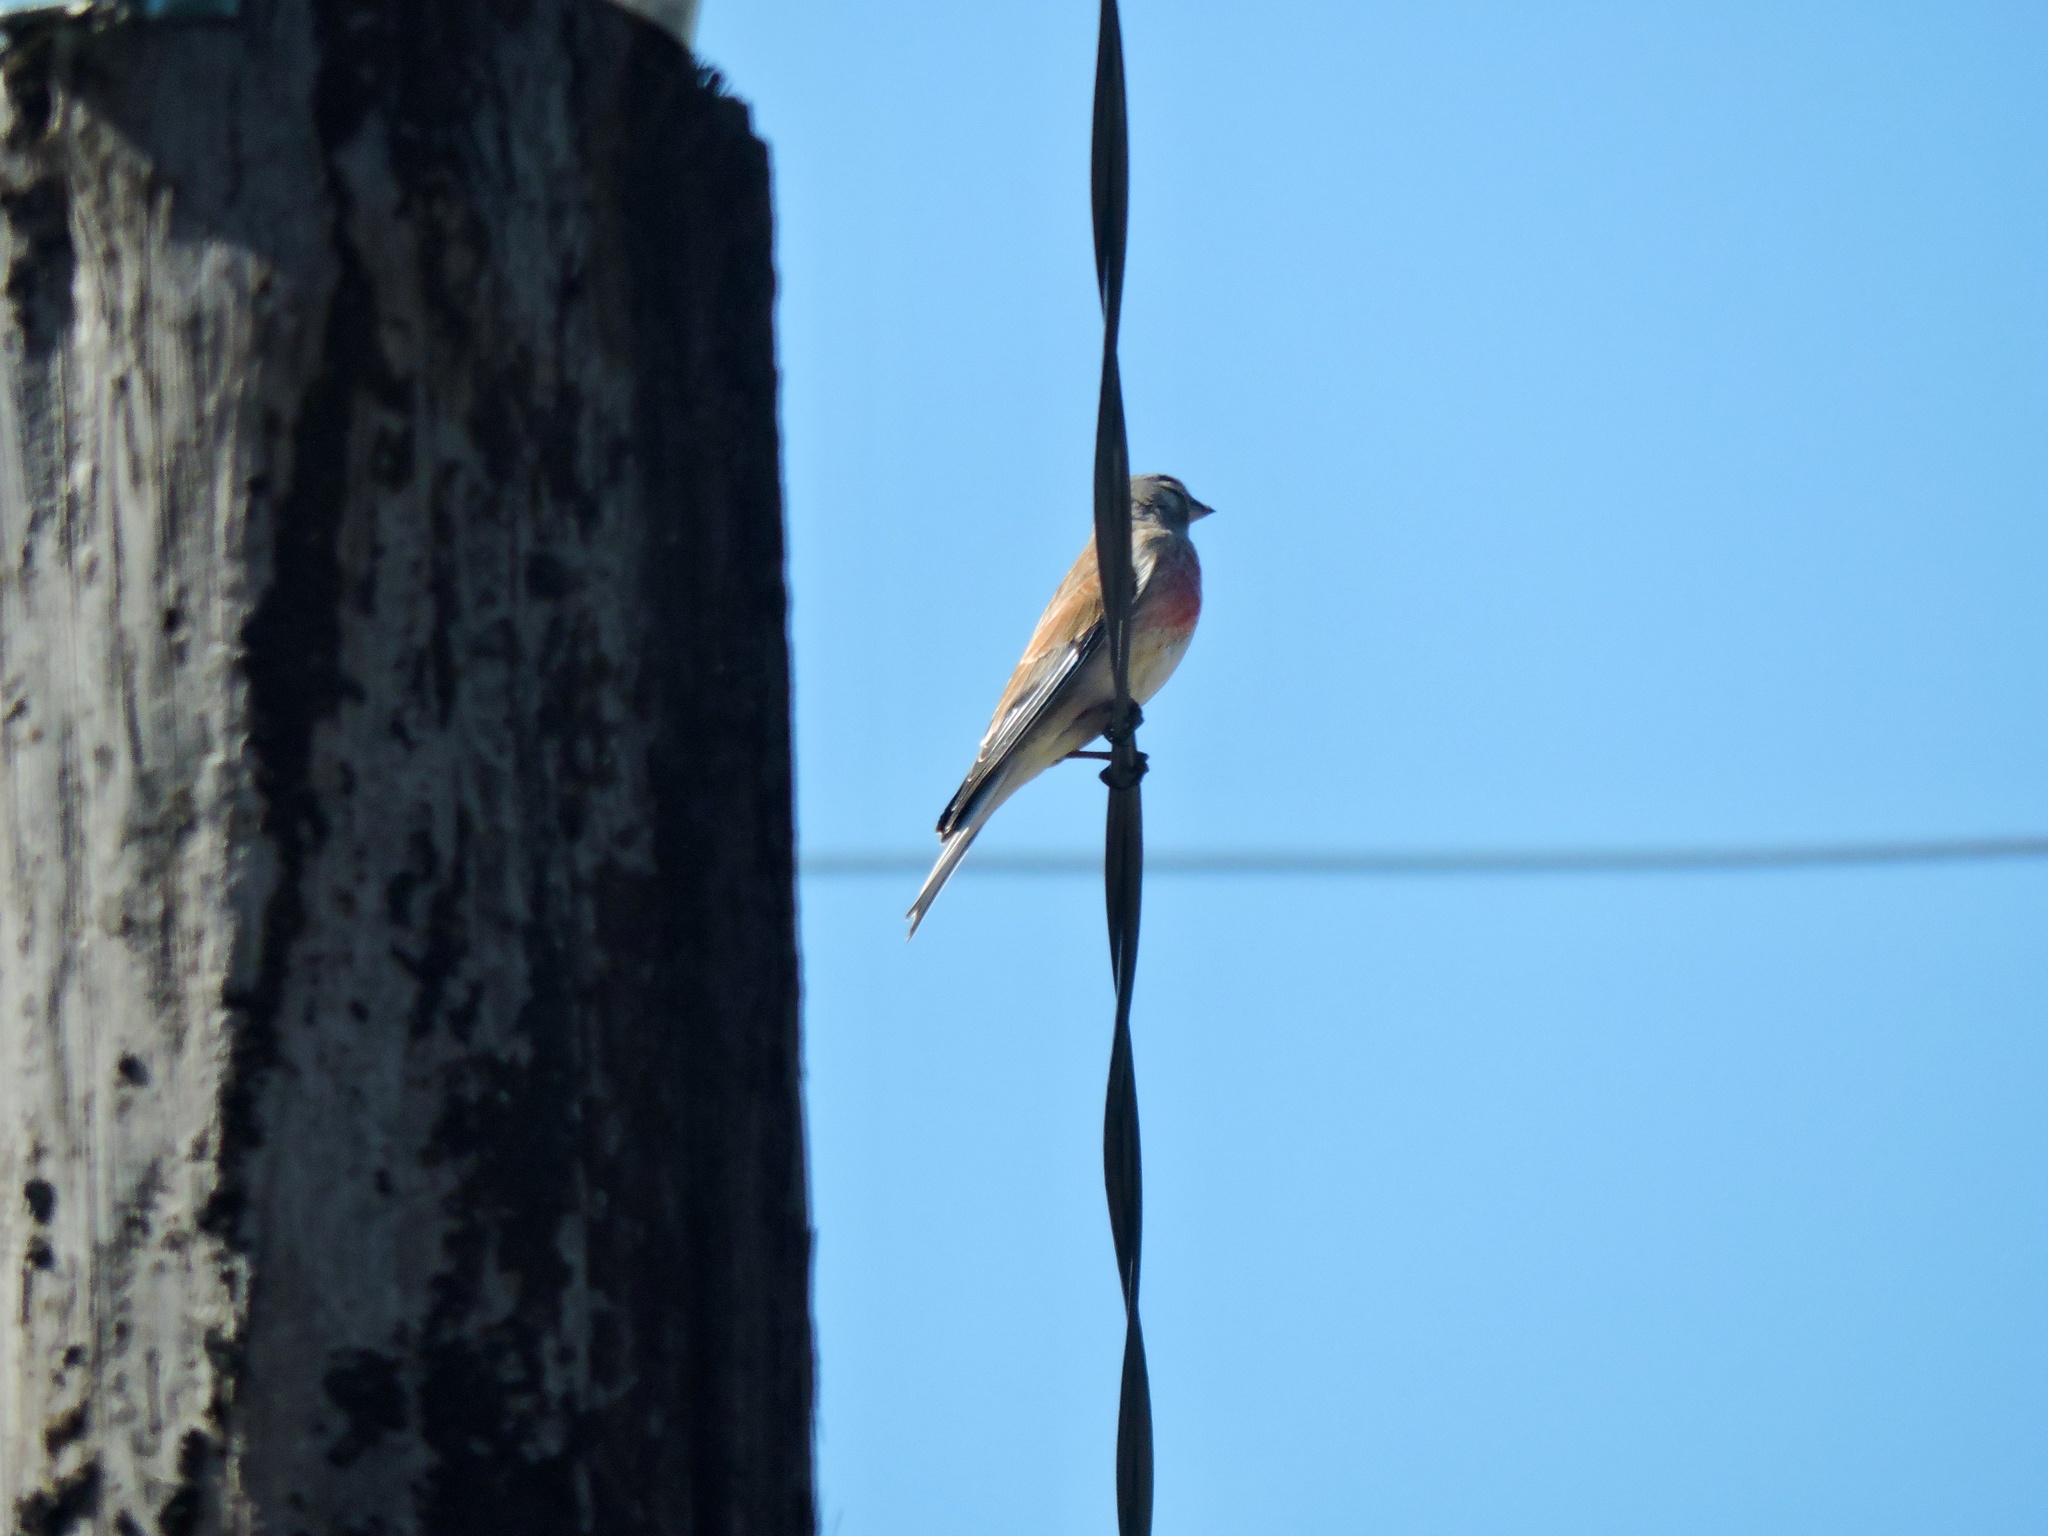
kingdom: Animalia
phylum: Chordata
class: Aves
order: Passeriformes
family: Fringillidae
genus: Linaria
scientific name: Linaria cannabina
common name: Common linnet
